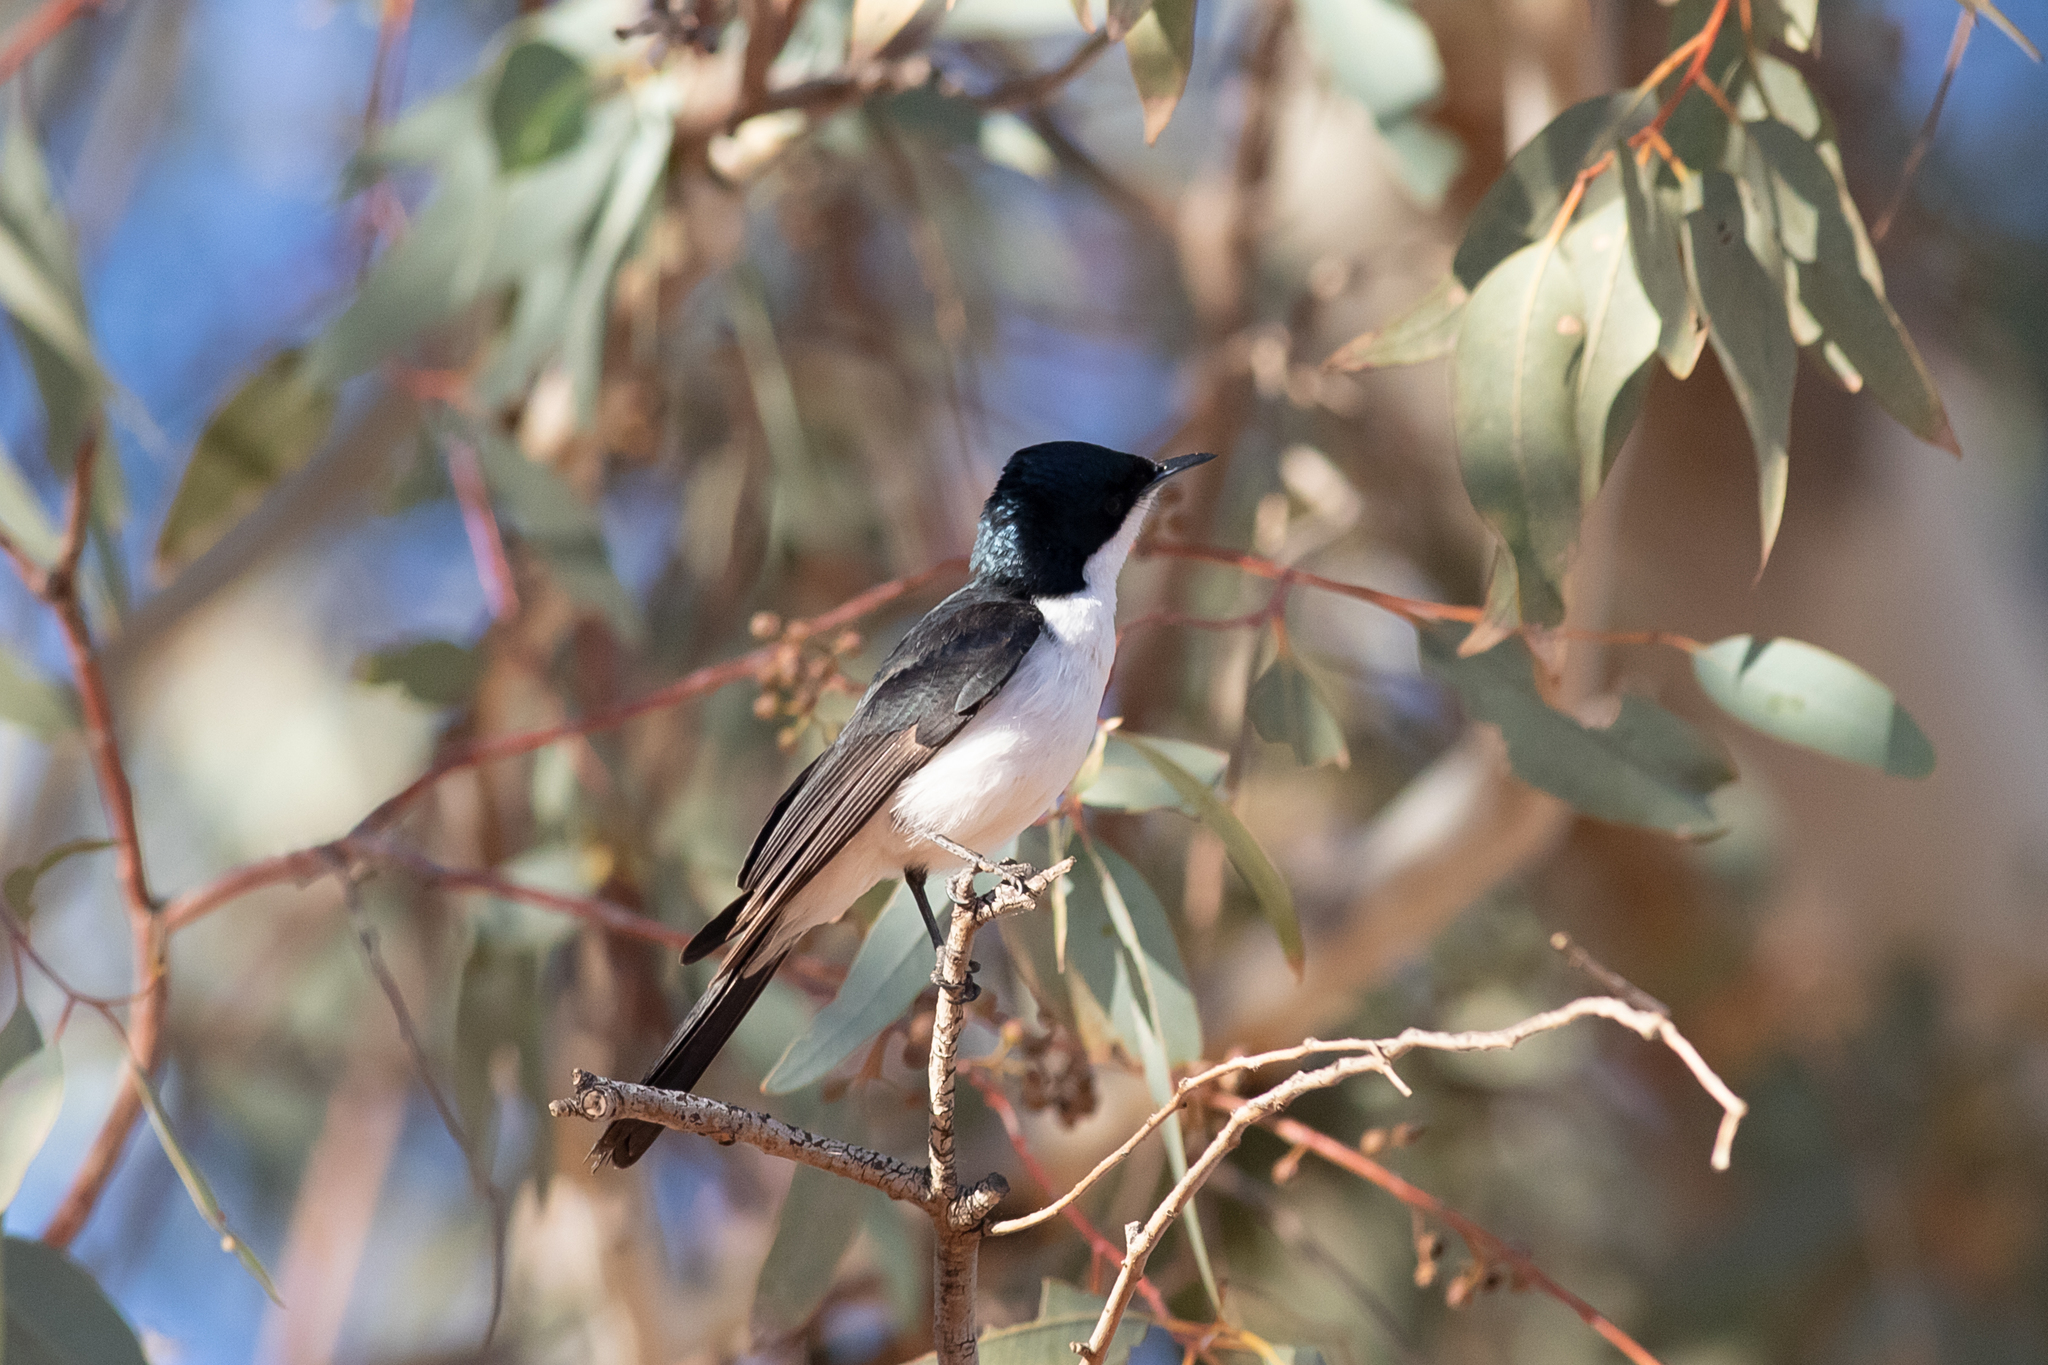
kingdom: Animalia
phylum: Chordata
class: Aves
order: Passeriformes
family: Monarchidae
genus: Myiagra
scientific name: Myiagra inquieta
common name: Restless flycatcher
